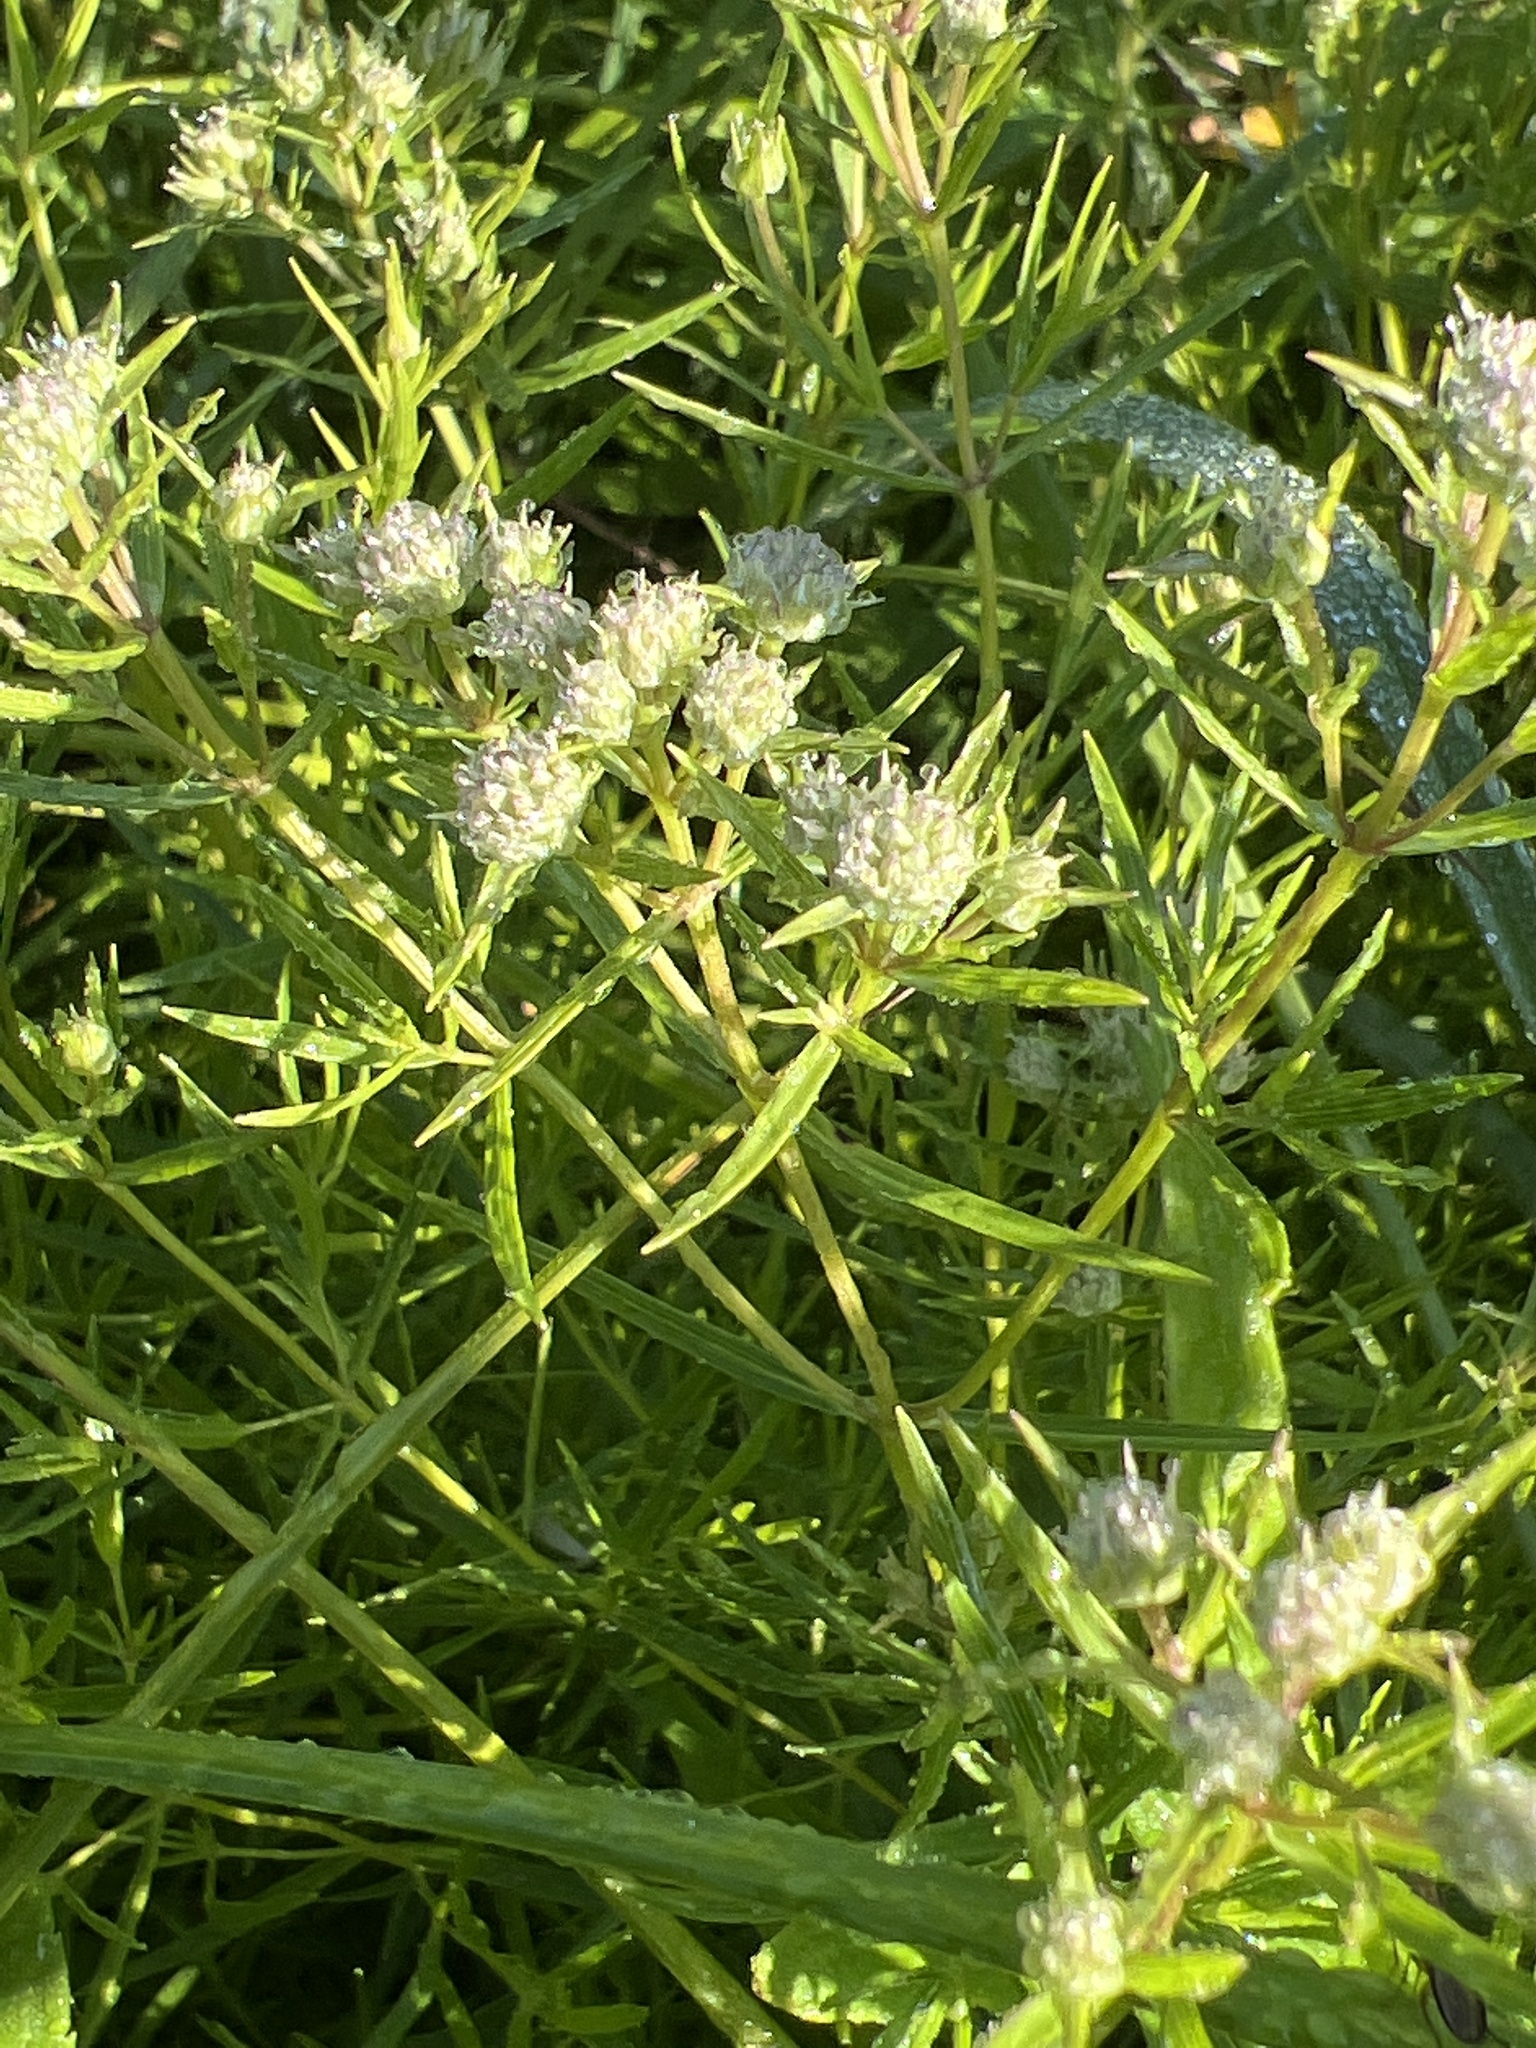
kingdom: Plantae
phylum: Tracheophyta
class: Magnoliopsida
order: Lamiales
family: Lamiaceae
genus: Pycnanthemum
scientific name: Pycnanthemum tenuifolium
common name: Narrow-leaf mountain-mint
